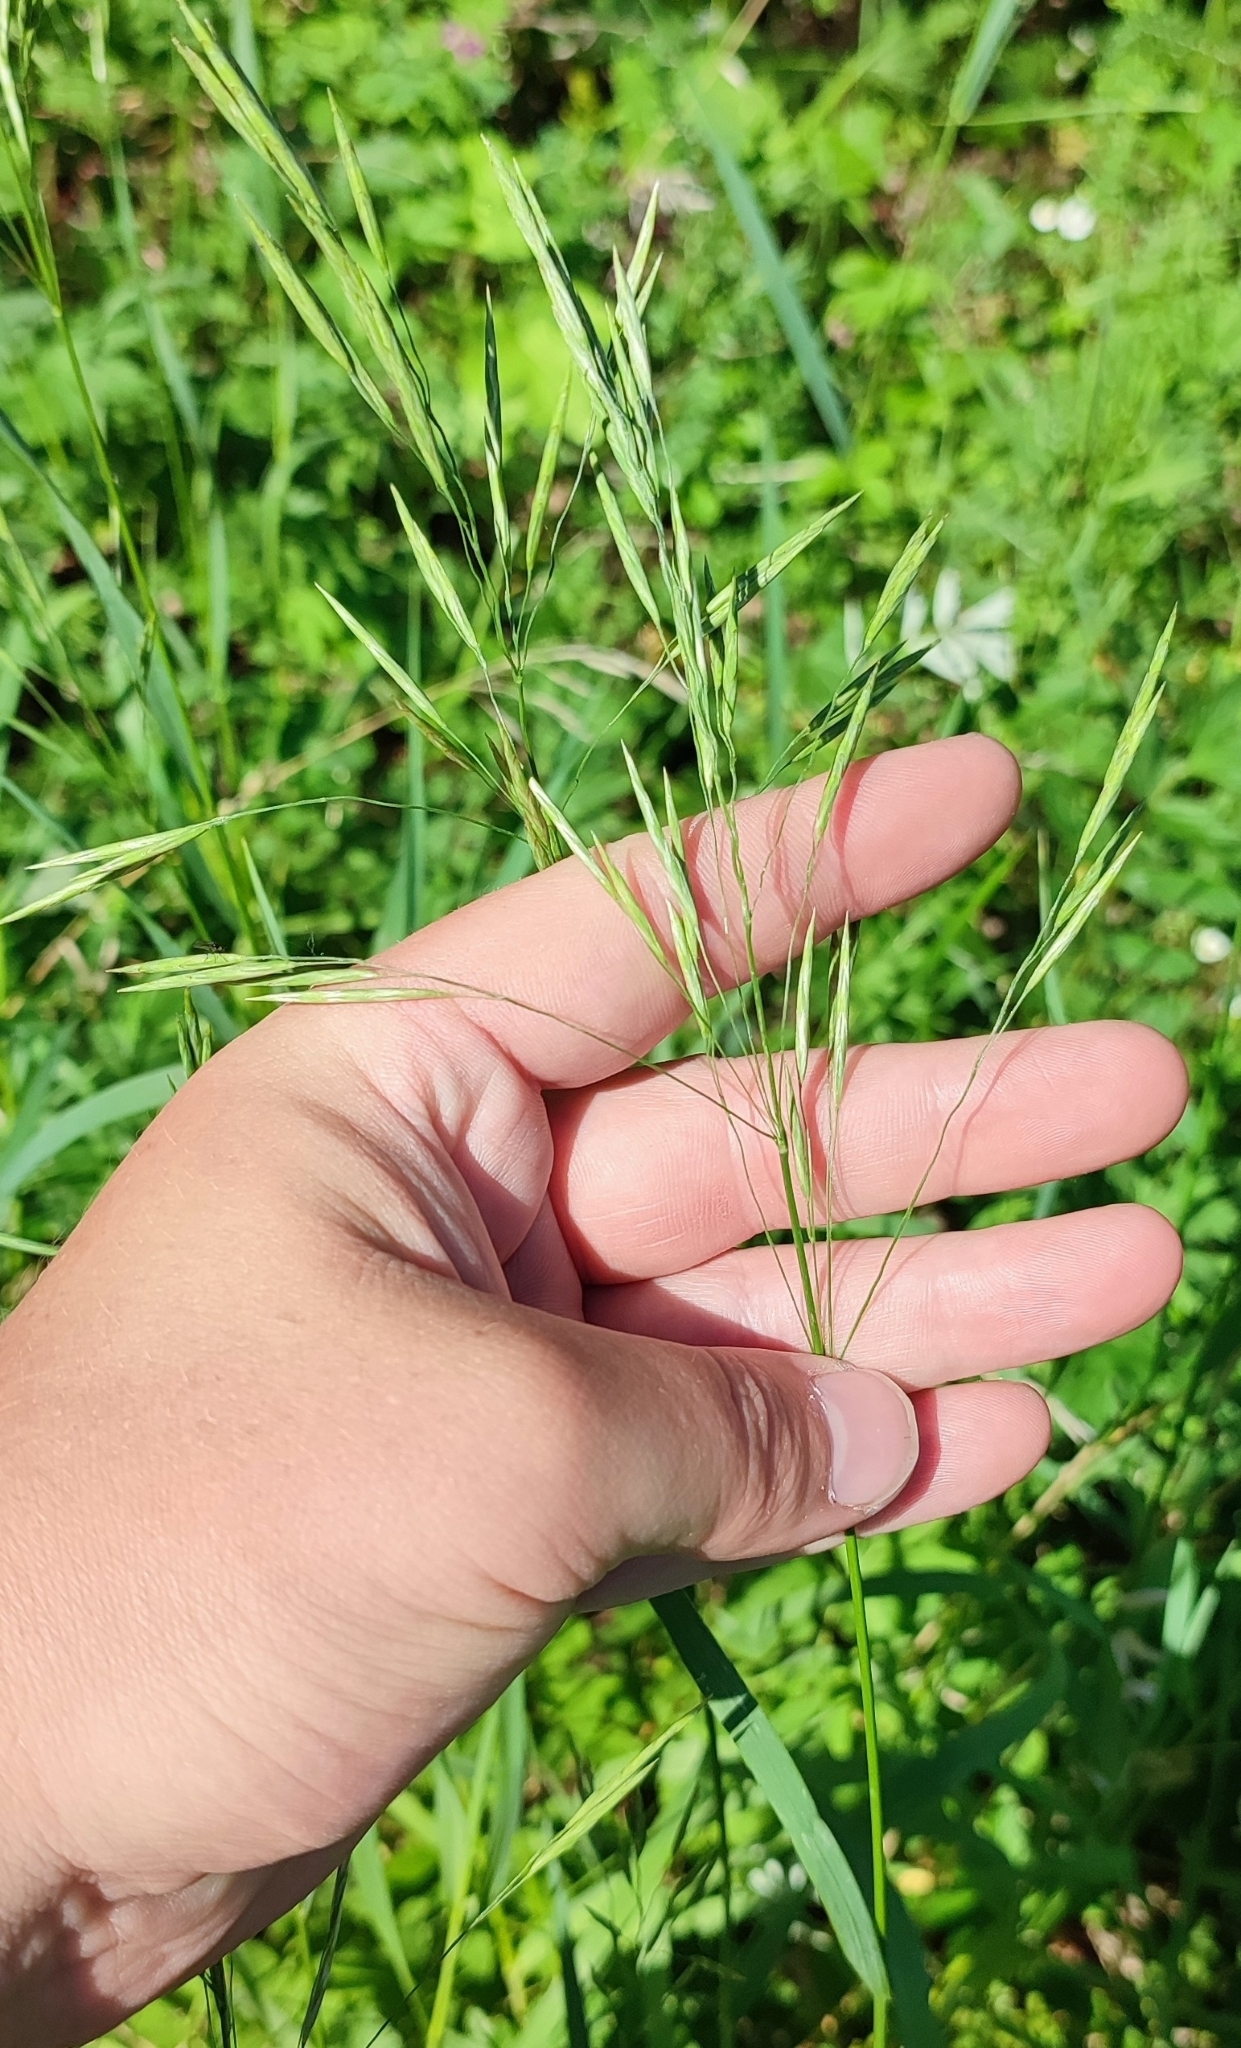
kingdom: Plantae
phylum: Tracheophyta
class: Liliopsida
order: Poales
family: Poaceae
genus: Bromus
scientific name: Bromus inermis
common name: Smooth brome
